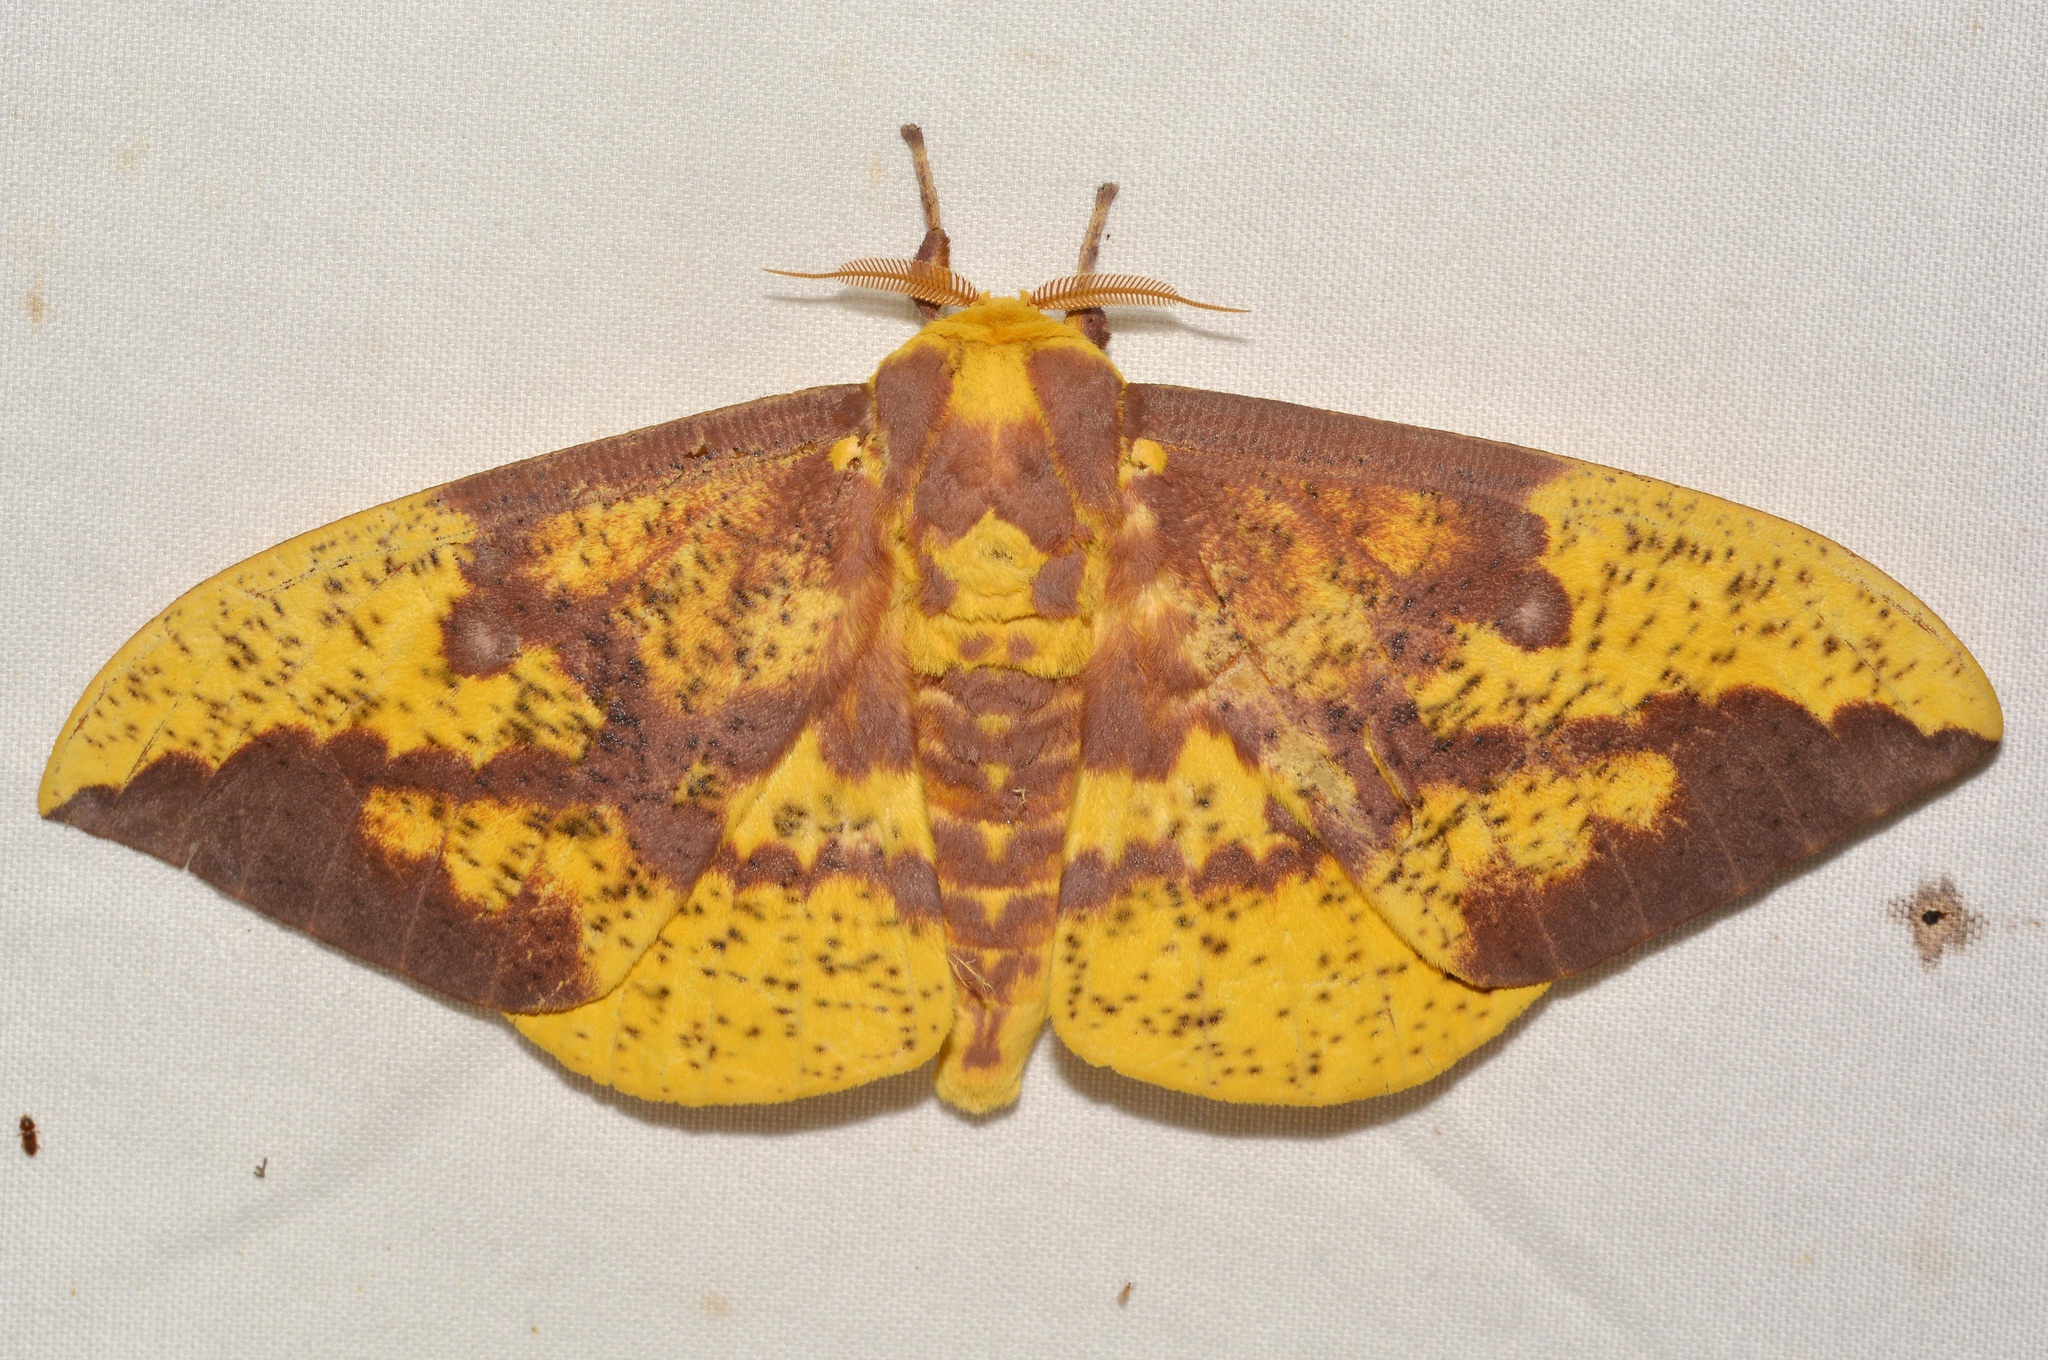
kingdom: Animalia
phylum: Arthropoda
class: Insecta
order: Lepidoptera
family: Saturniidae
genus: Eacles
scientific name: Eacles imperialis
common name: Imperial moth
